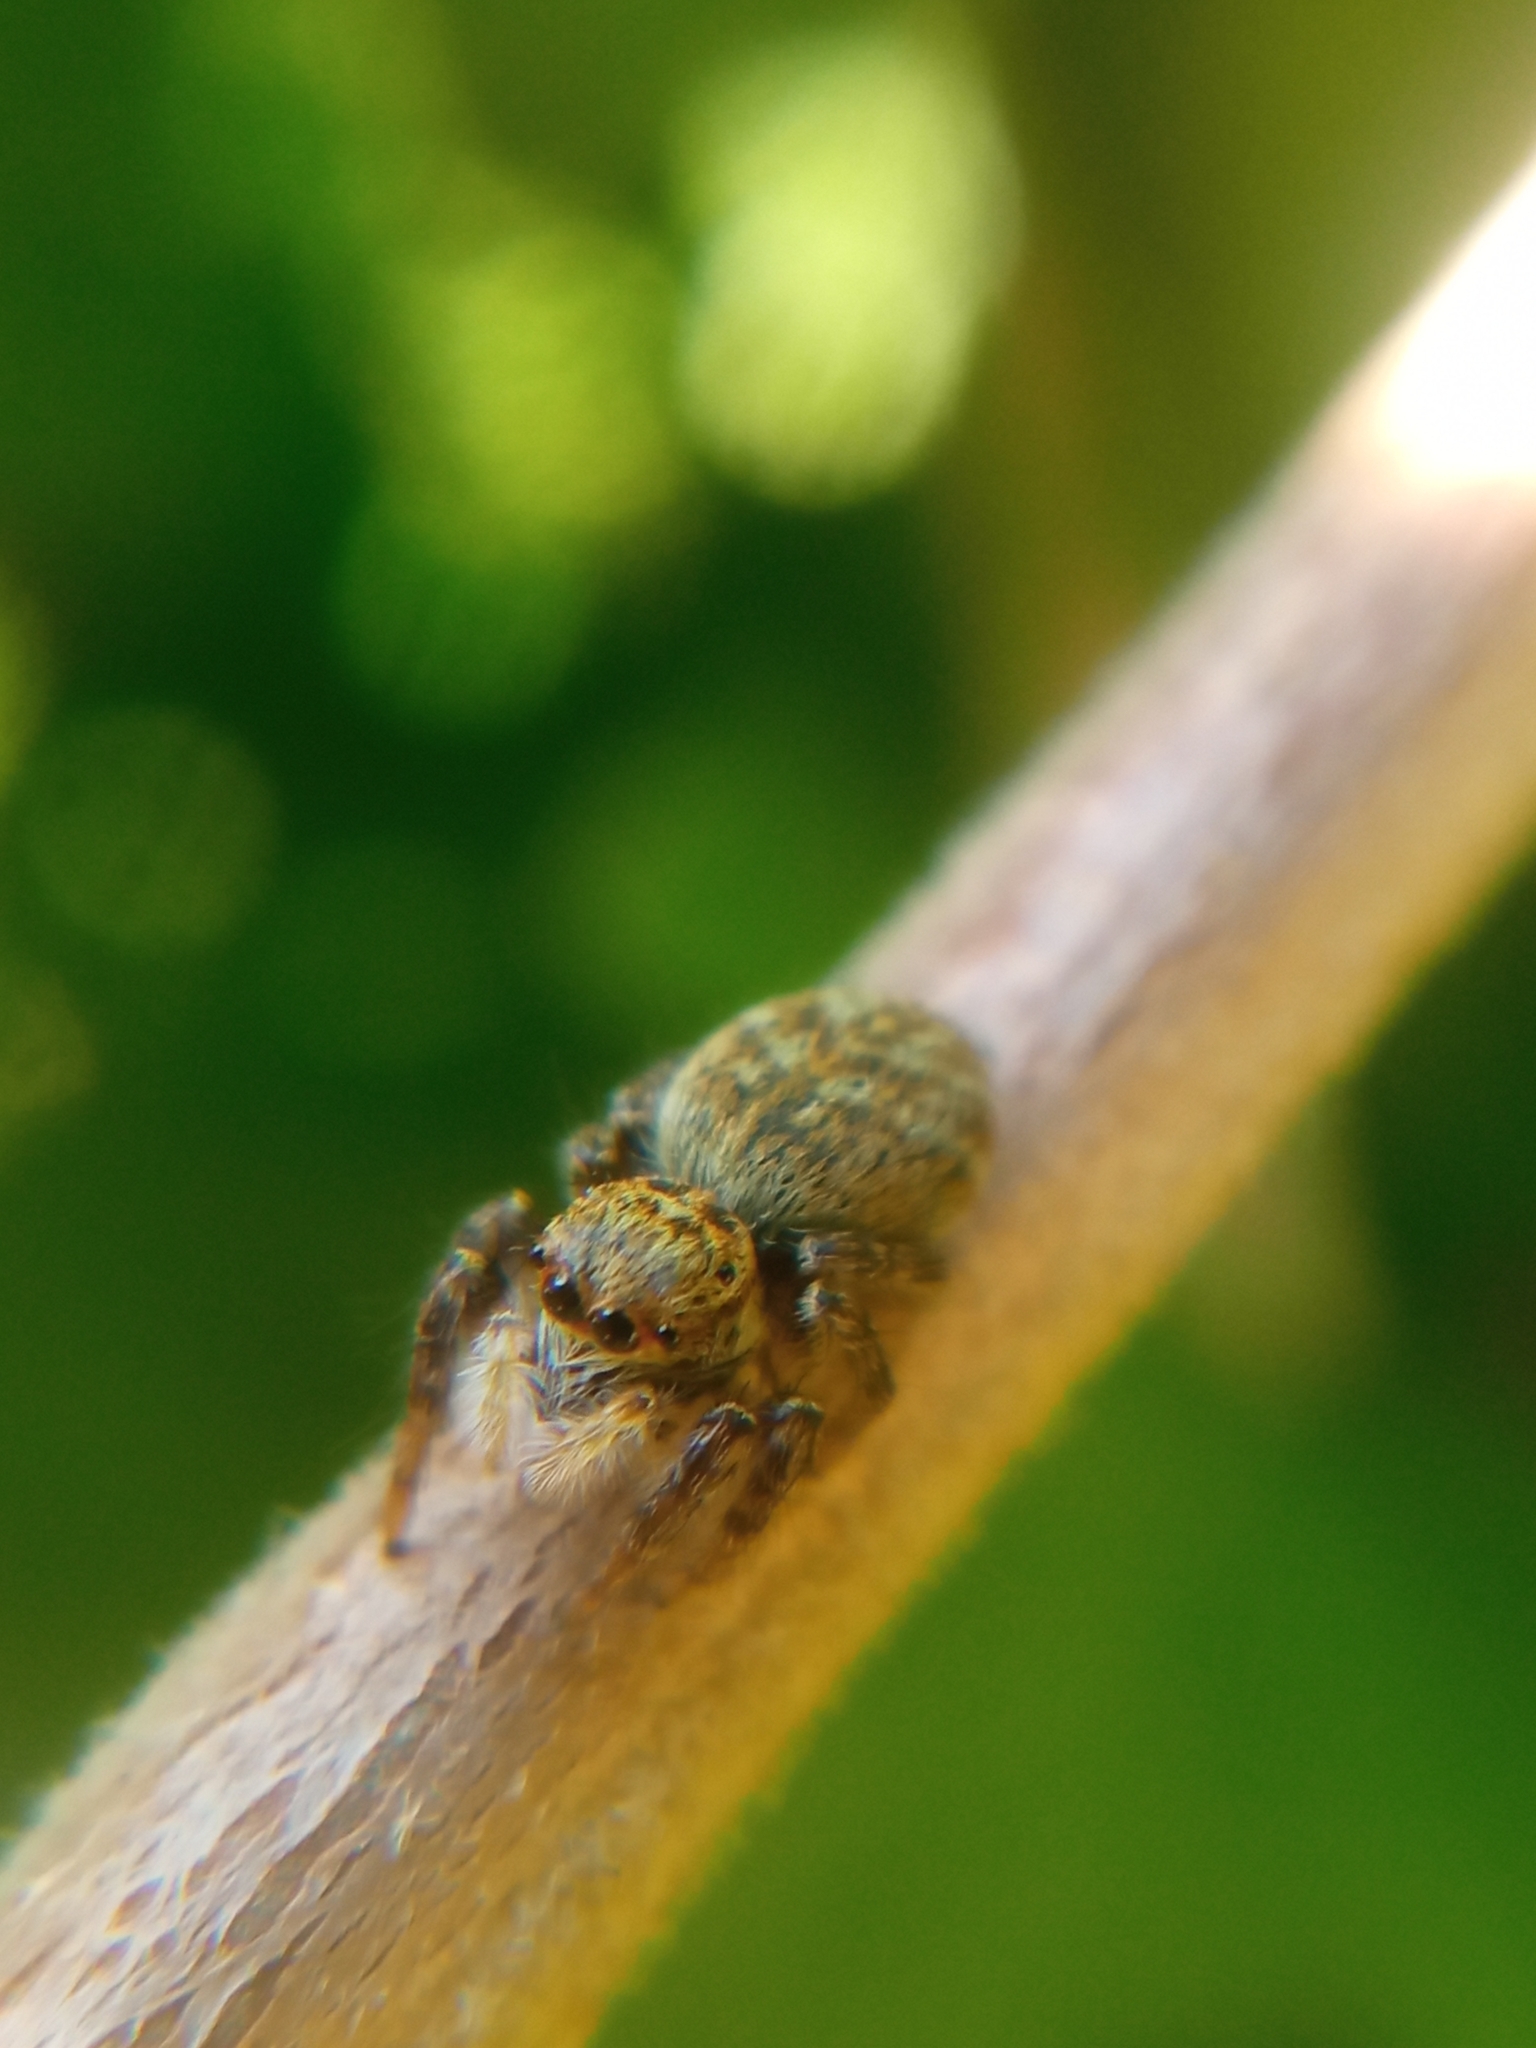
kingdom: Animalia
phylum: Arthropoda
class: Arachnida
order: Araneae
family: Salticidae
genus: Carrhotus
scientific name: Carrhotus xanthogramma
